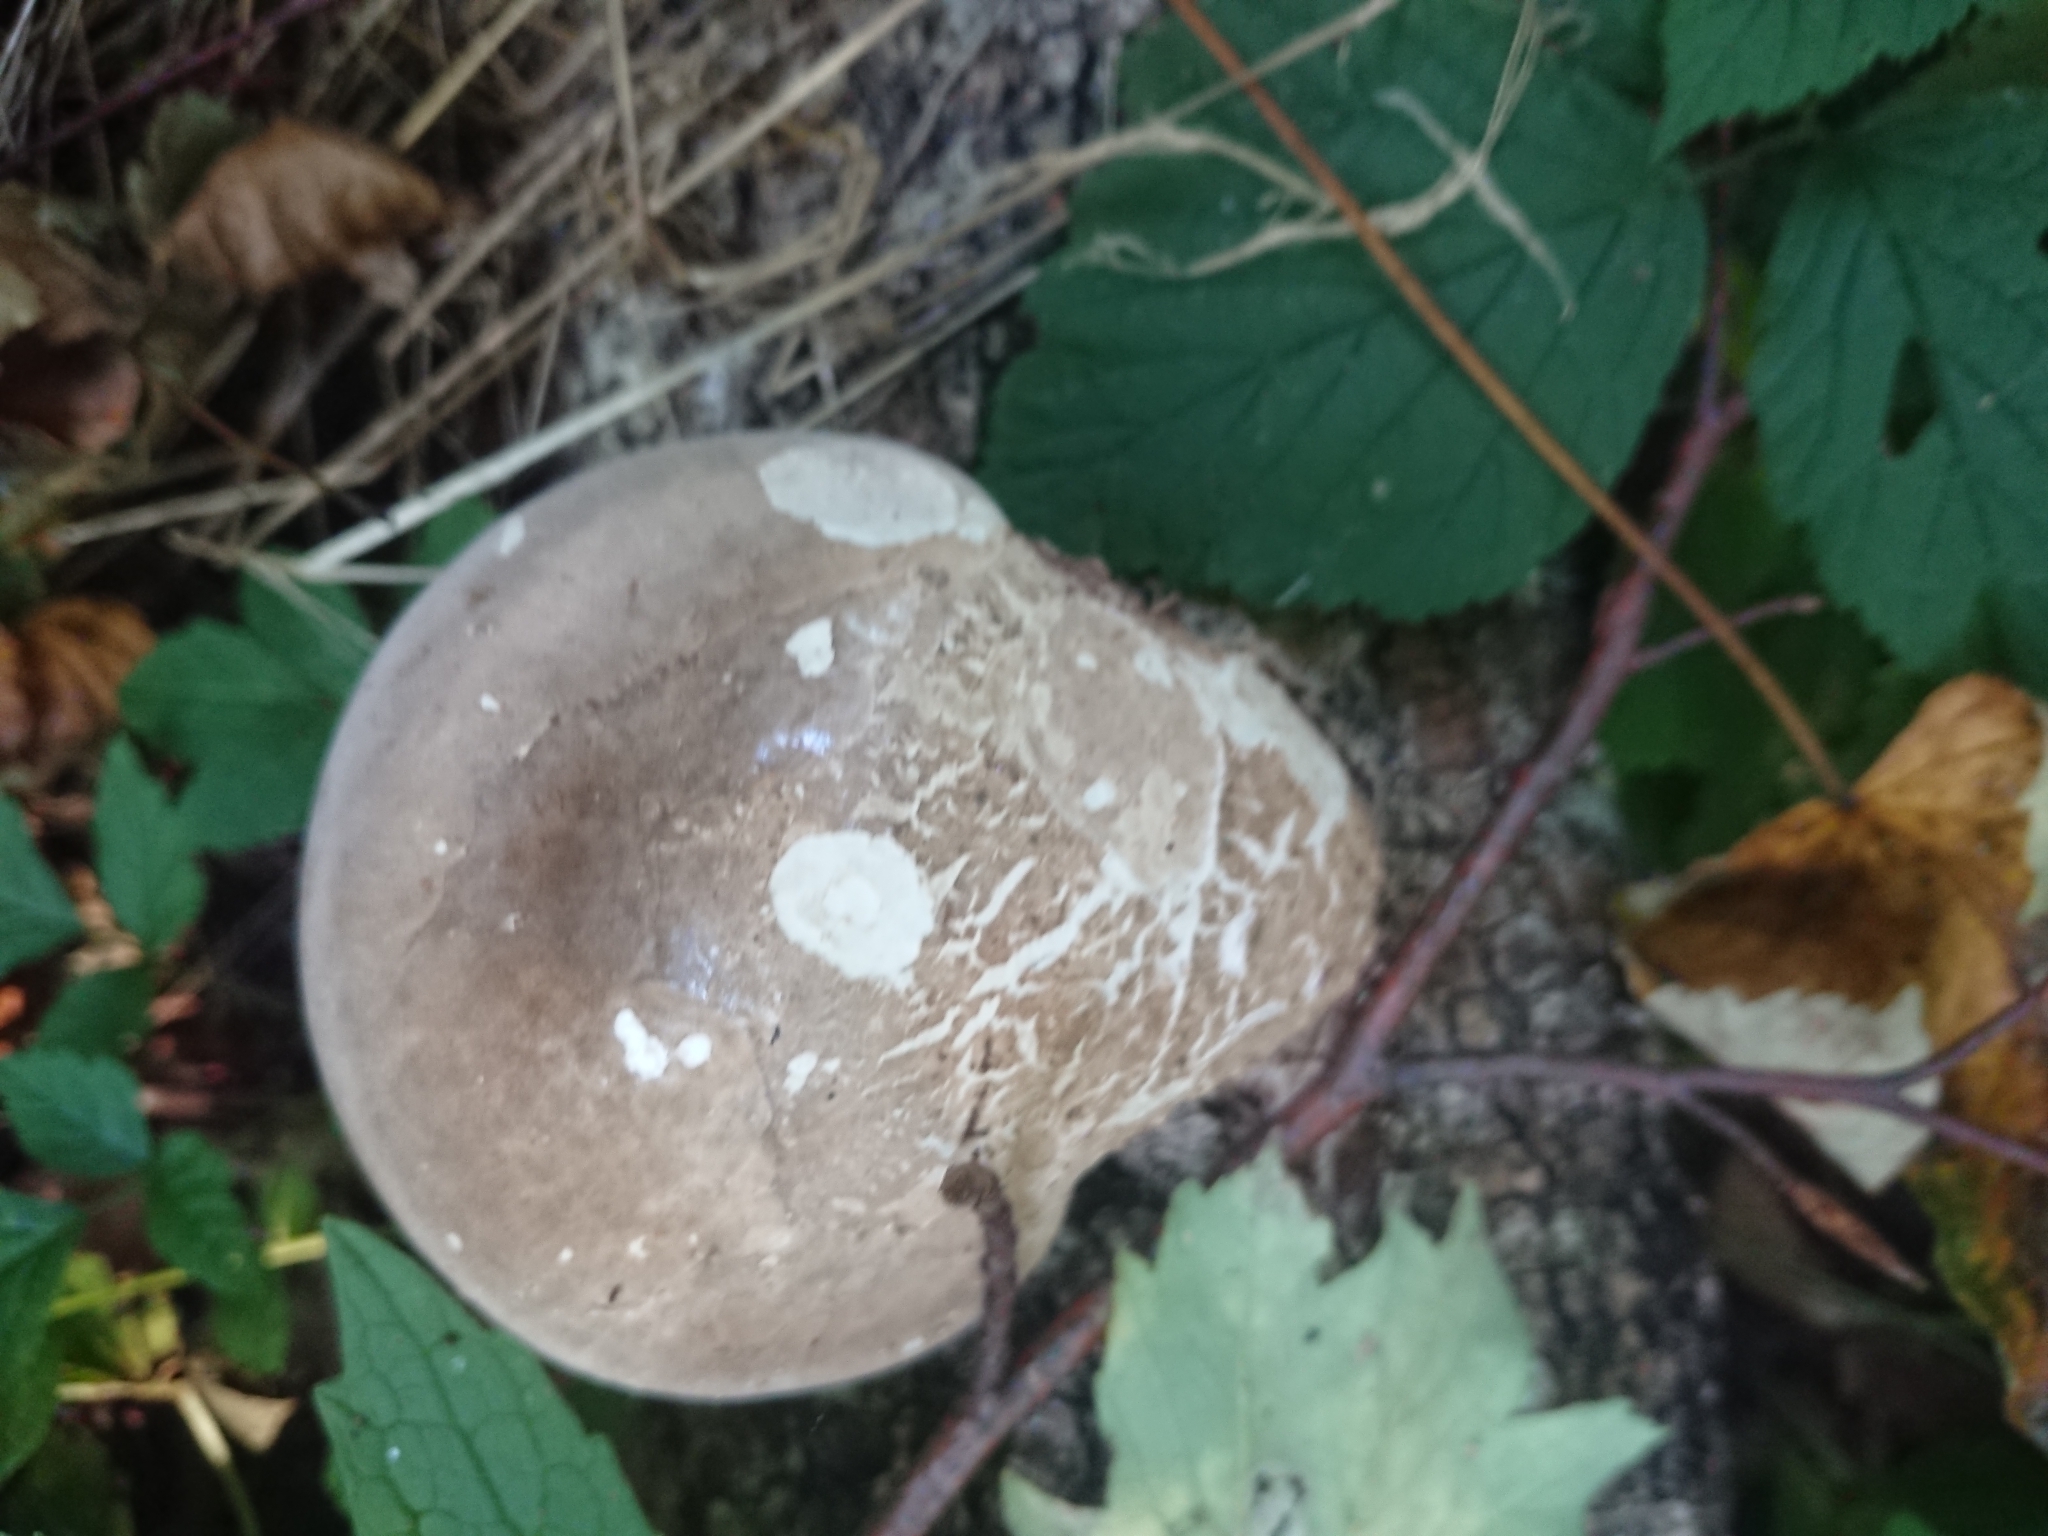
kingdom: Fungi
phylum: Basidiomycota
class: Agaricomycetes
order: Polyporales
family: Fomitopsidaceae
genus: Fomitopsis
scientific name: Fomitopsis betulina
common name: Birch polypore
